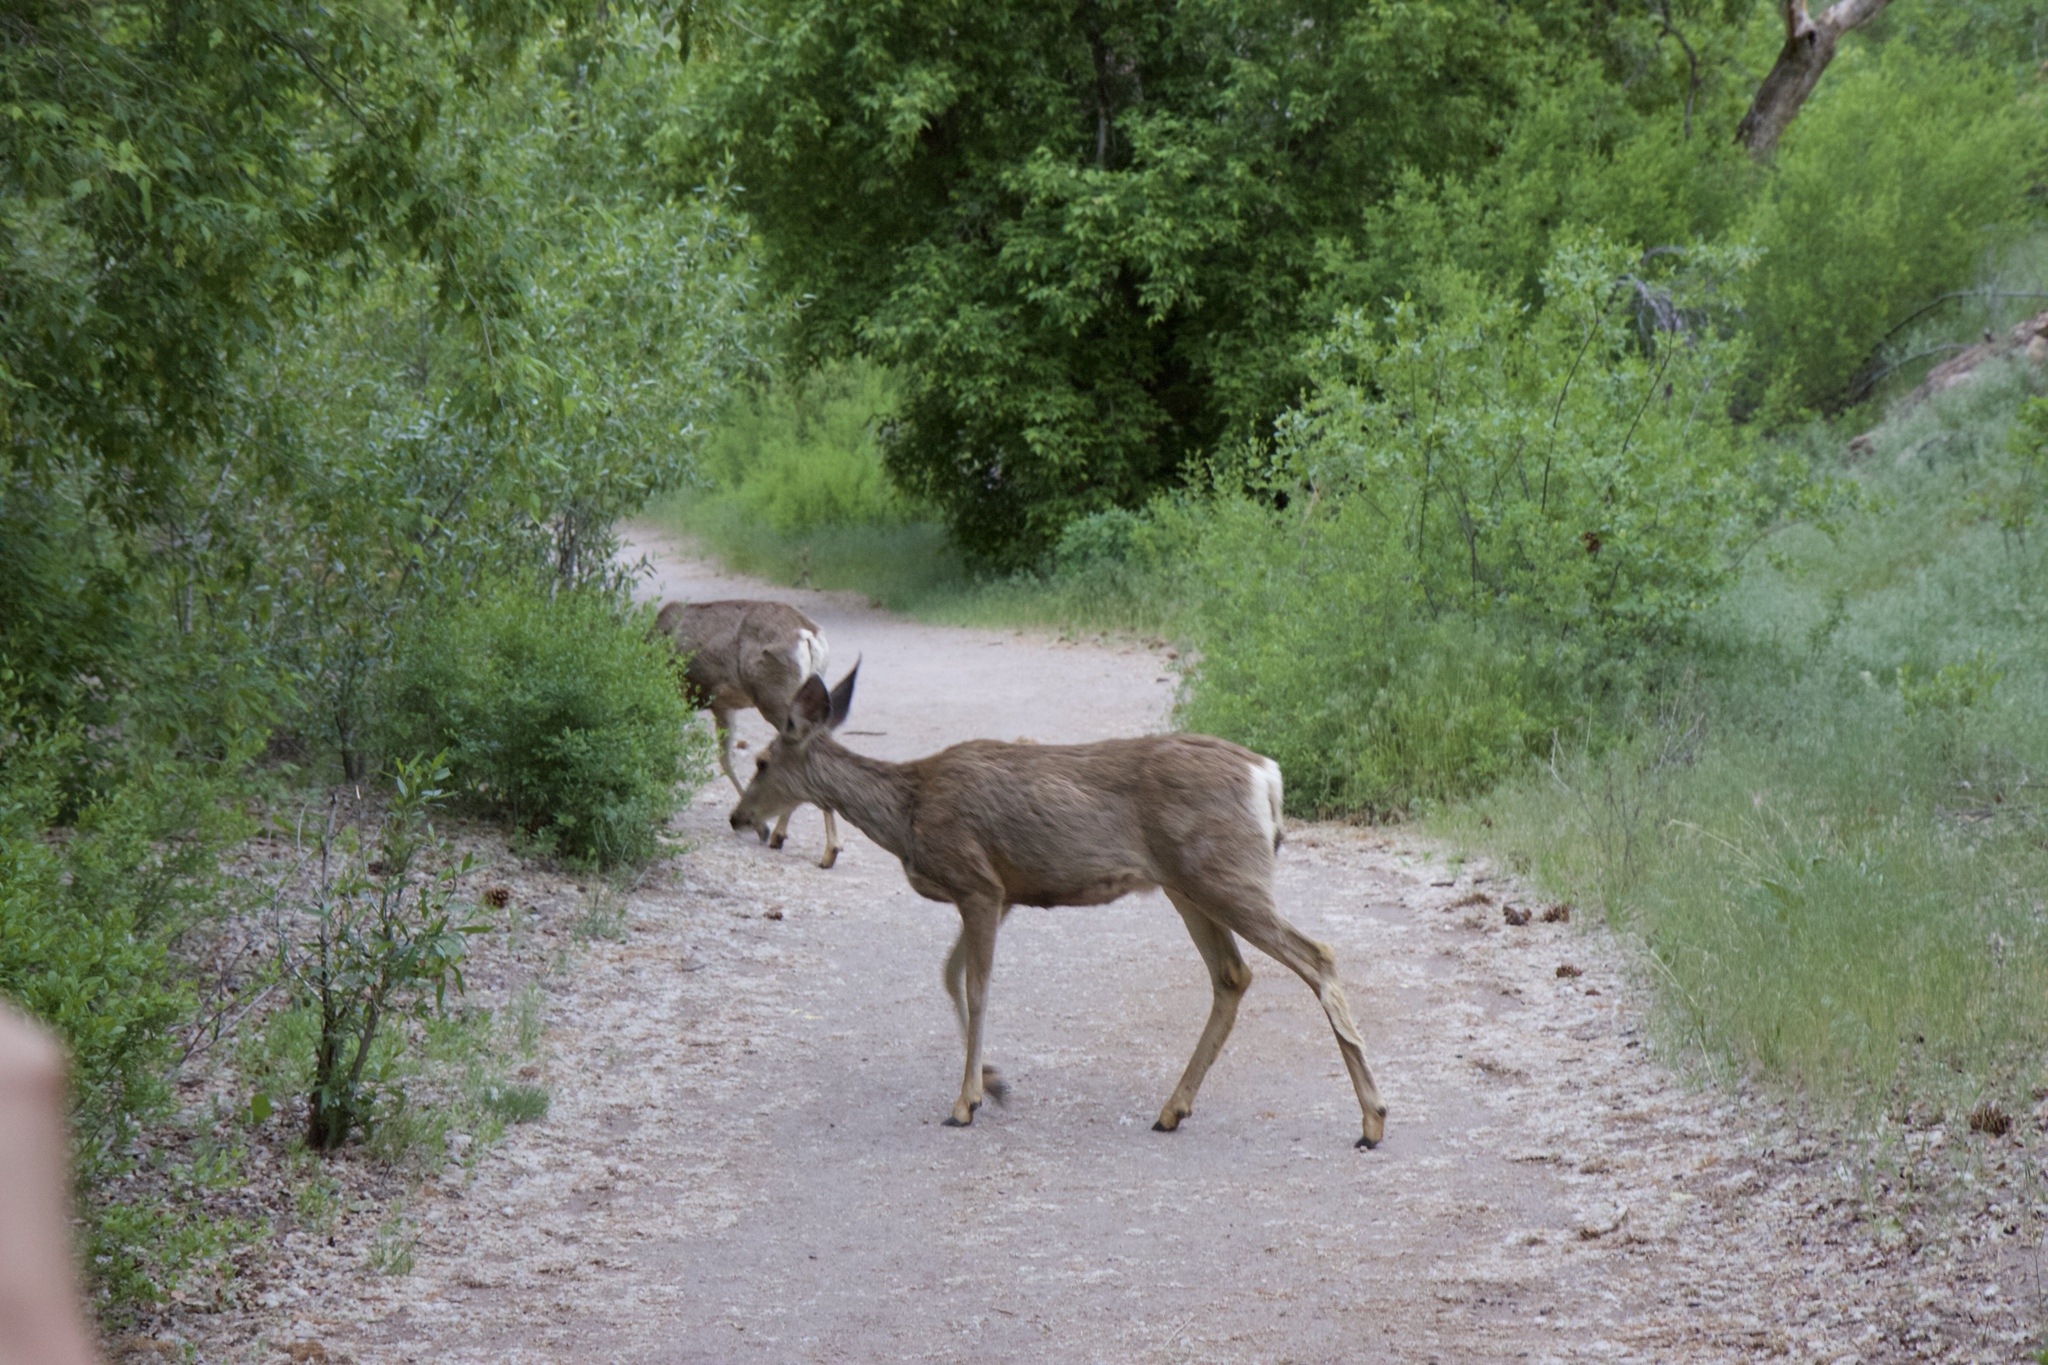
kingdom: Animalia
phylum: Chordata
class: Mammalia
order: Artiodactyla
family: Cervidae
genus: Odocoileus
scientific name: Odocoileus hemionus
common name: Mule deer
